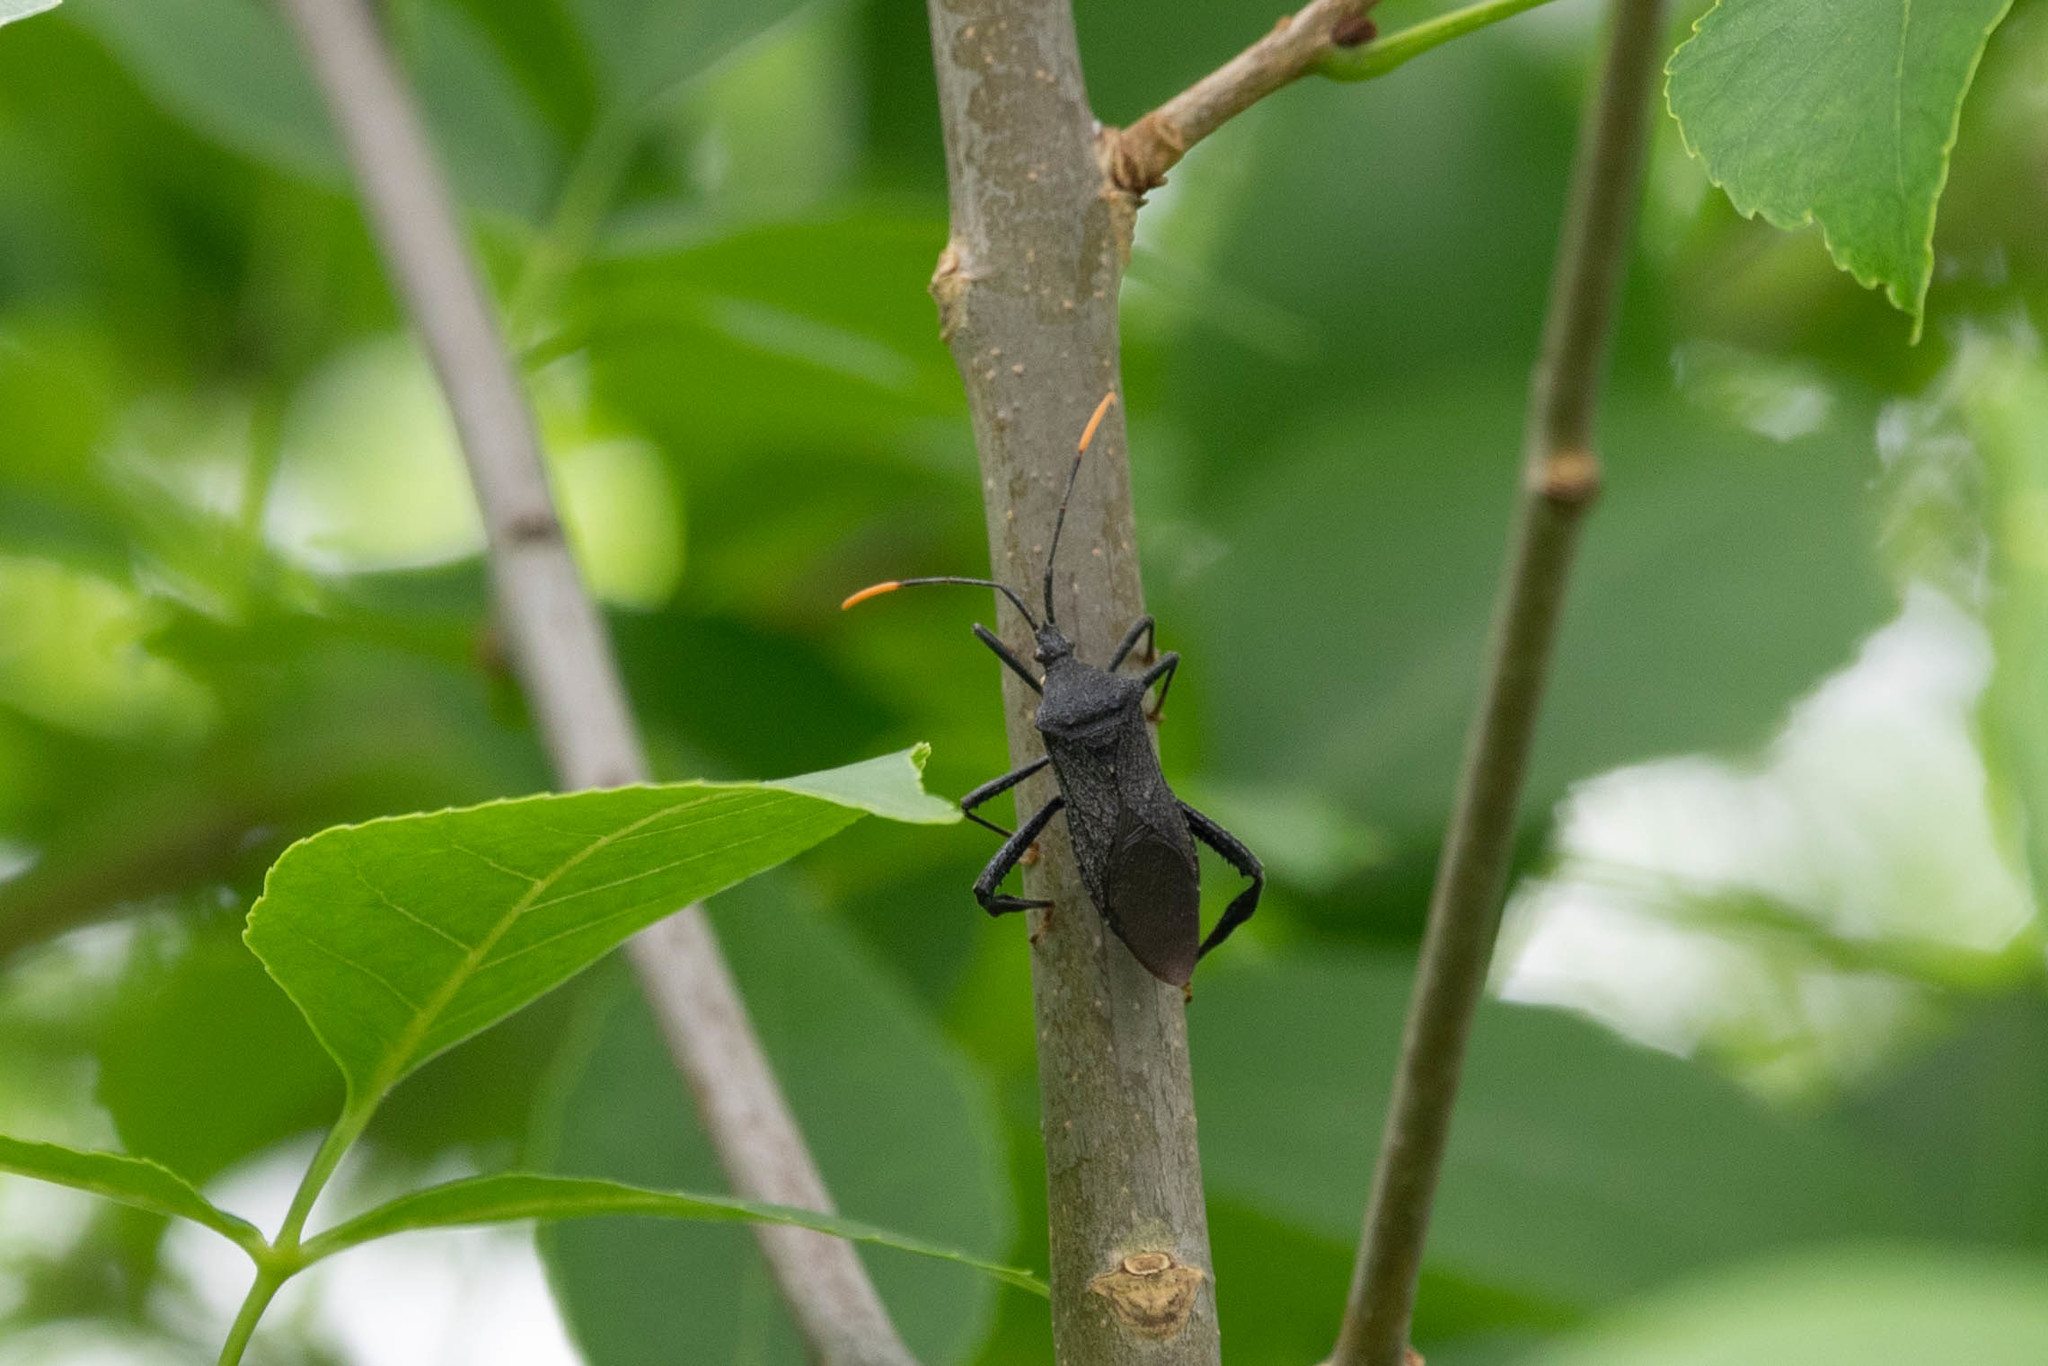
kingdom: Animalia
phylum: Arthropoda
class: Insecta
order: Hemiptera
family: Coreidae
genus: Acanthocephala
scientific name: Acanthocephala terminalis
